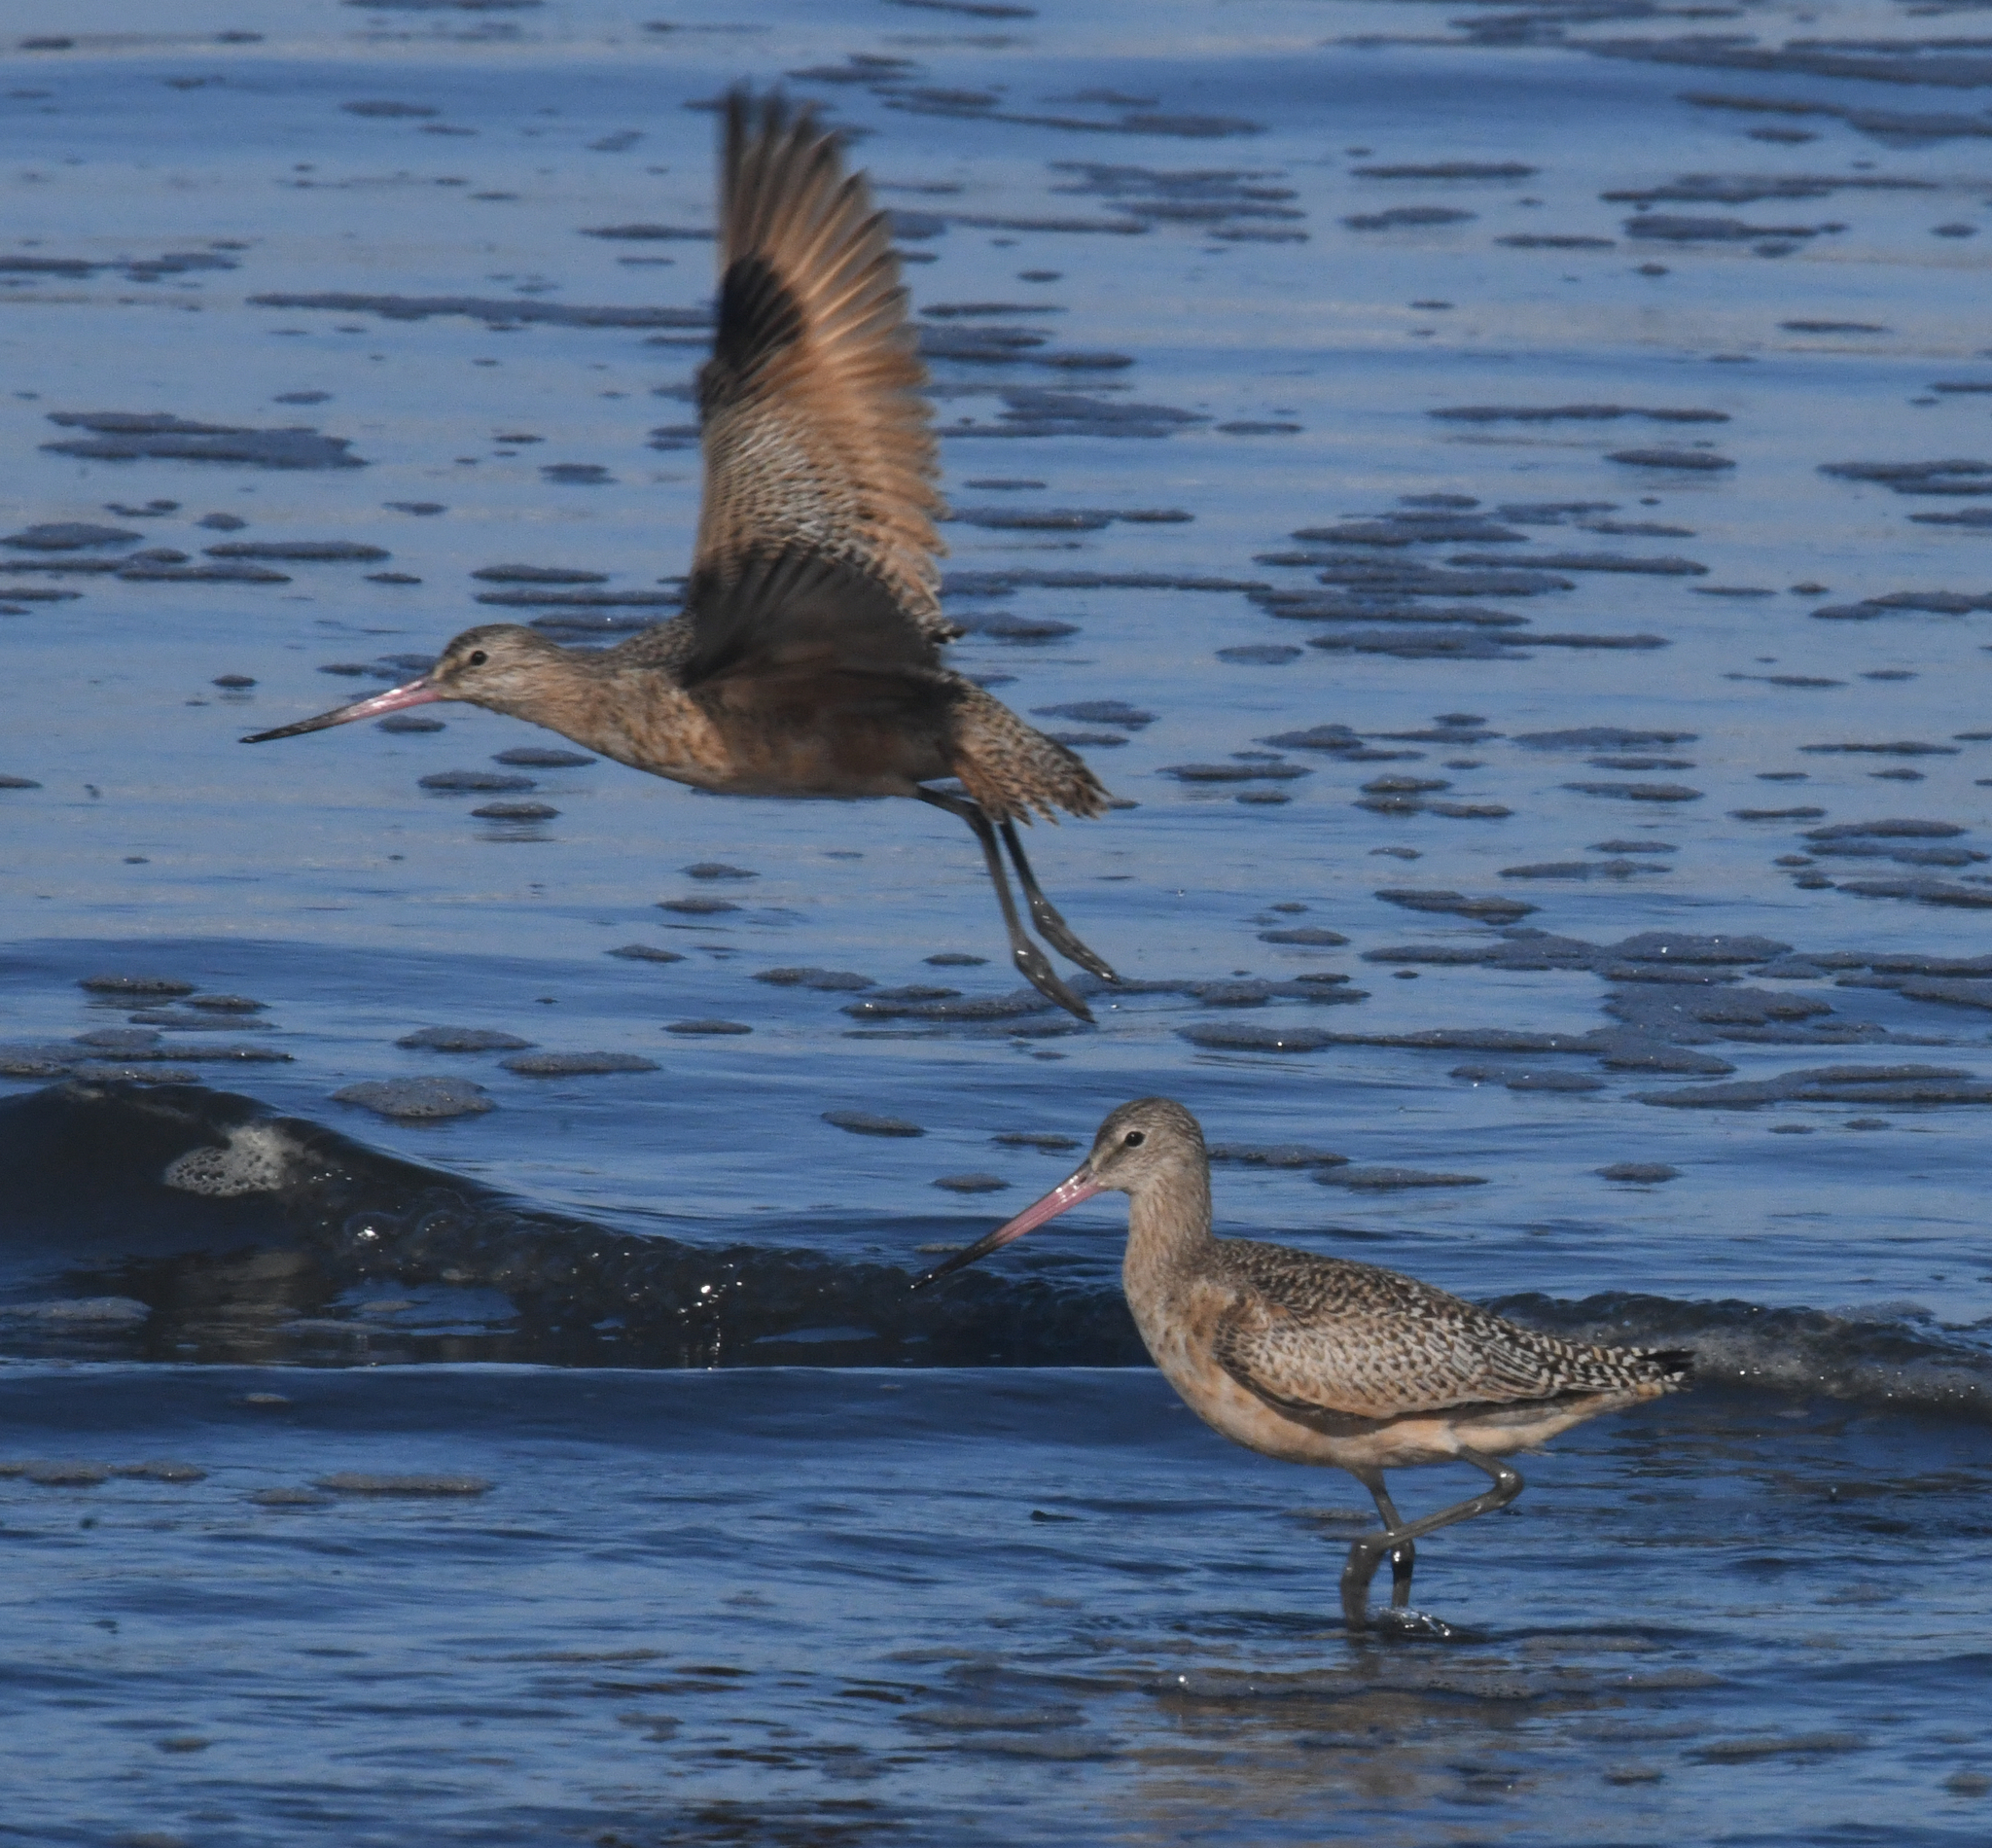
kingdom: Animalia
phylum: Chordata
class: Aves
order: Charadriiformes
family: Scolopacidae
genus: Limosa
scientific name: Limosa fedoa
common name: Marbled godwit
